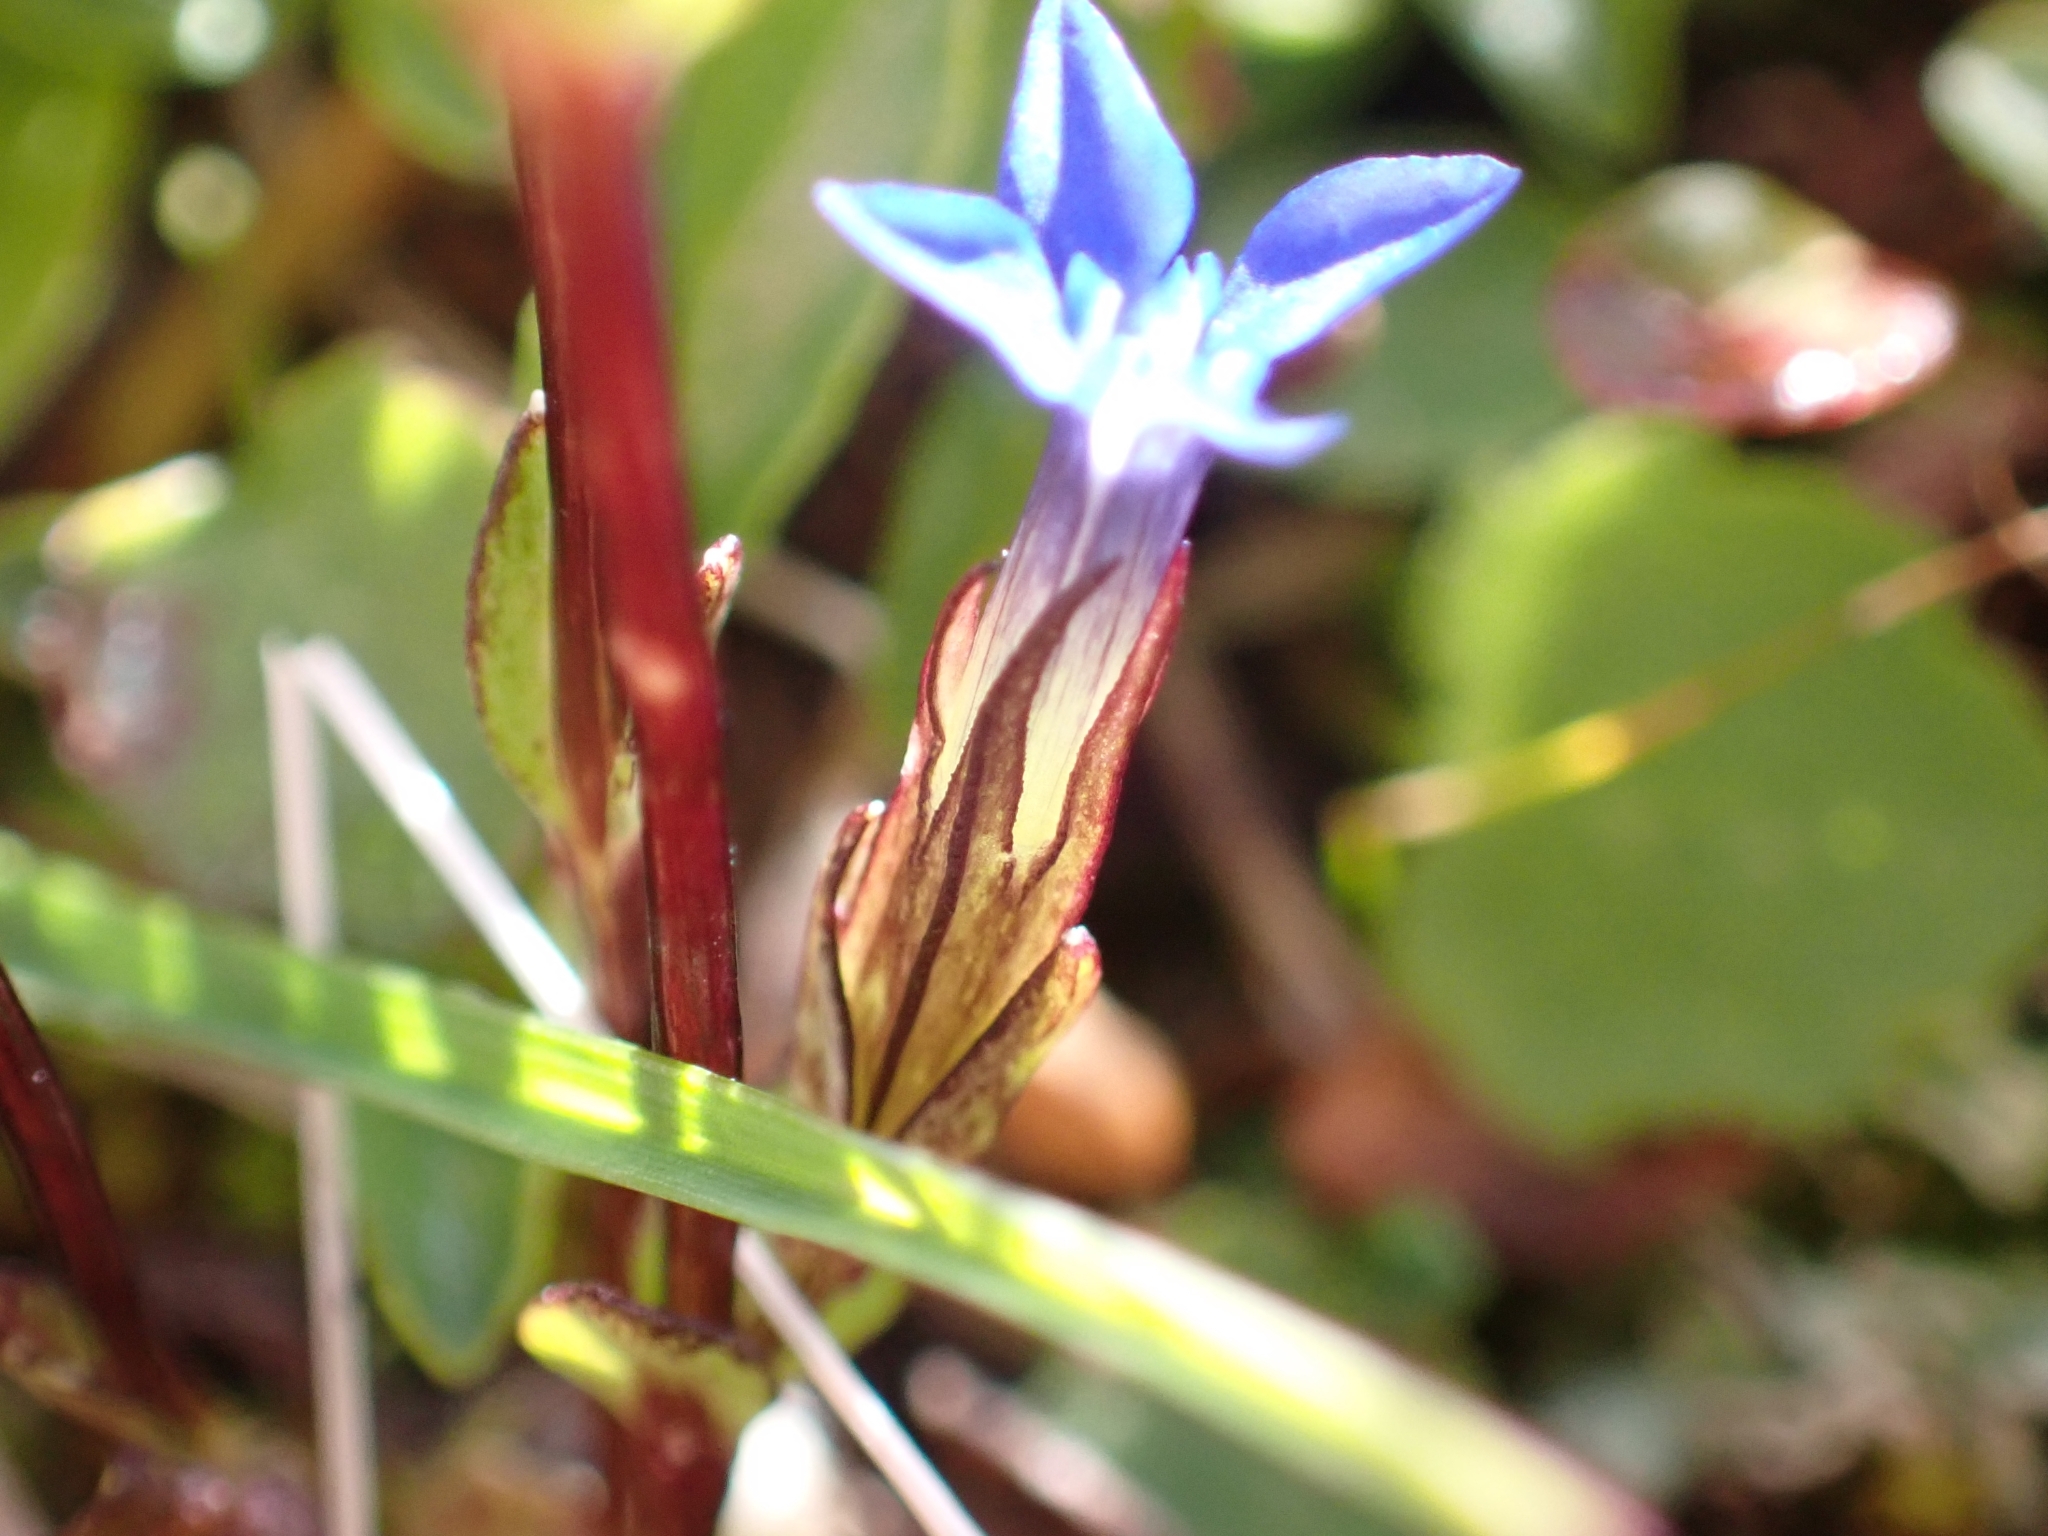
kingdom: Plantae
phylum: Tracheophyta
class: Magnoliopsida
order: Gentianales
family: Gentianaceae
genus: Gentiana
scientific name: Gentiana nivalis
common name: Alpine gentian
